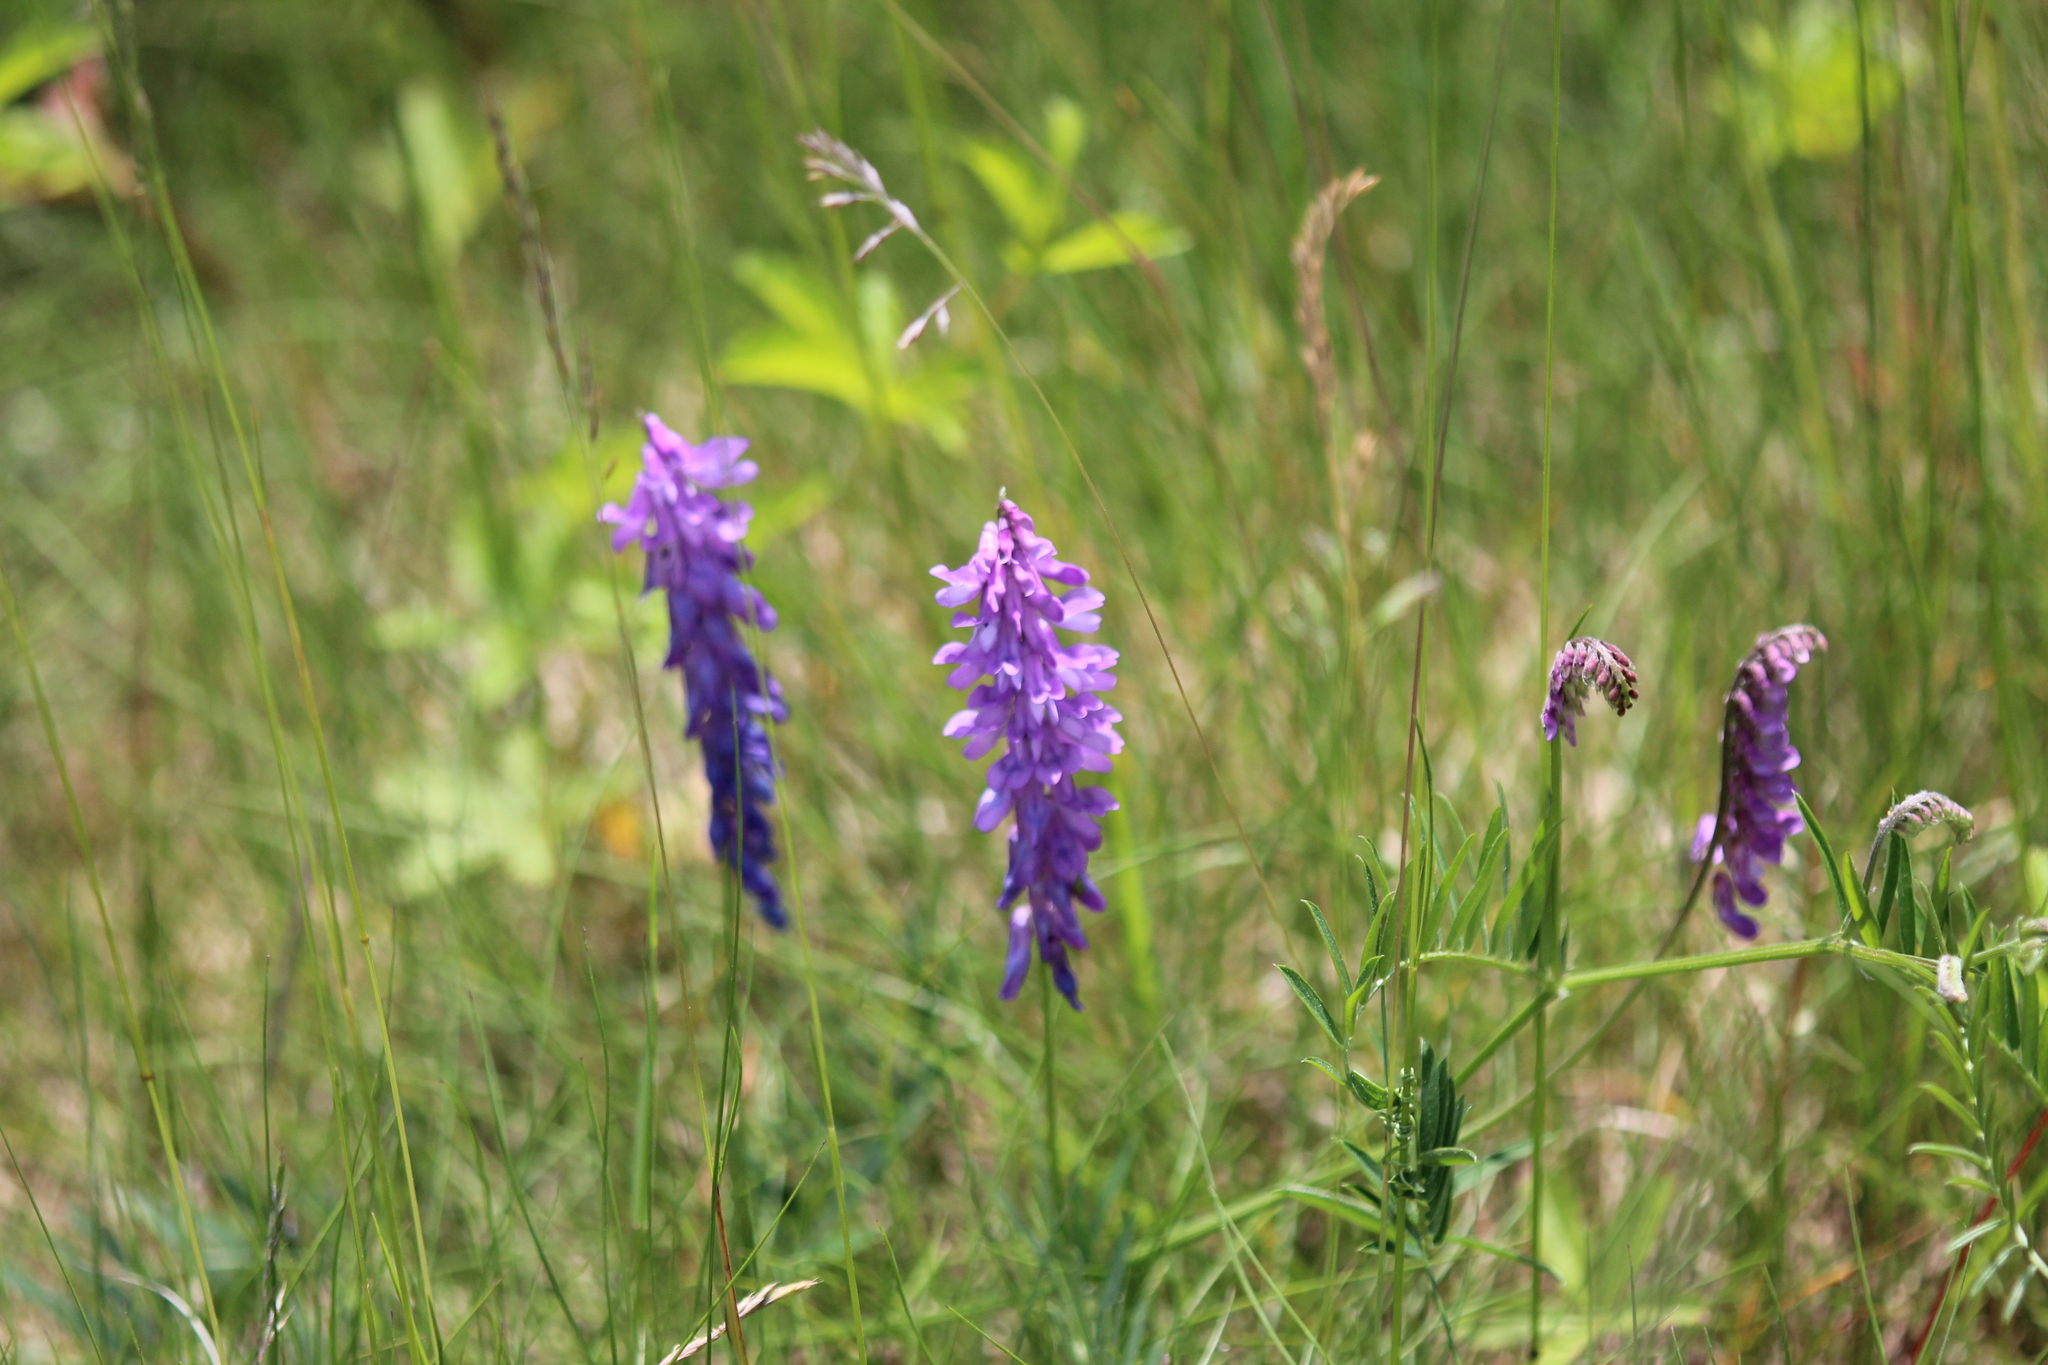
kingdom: Plantae
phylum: Tracheophyta
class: Magnoliopsida
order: Fabales
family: Fabaceae
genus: Vicia
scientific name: Vicia cracca
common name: Bird vetch
